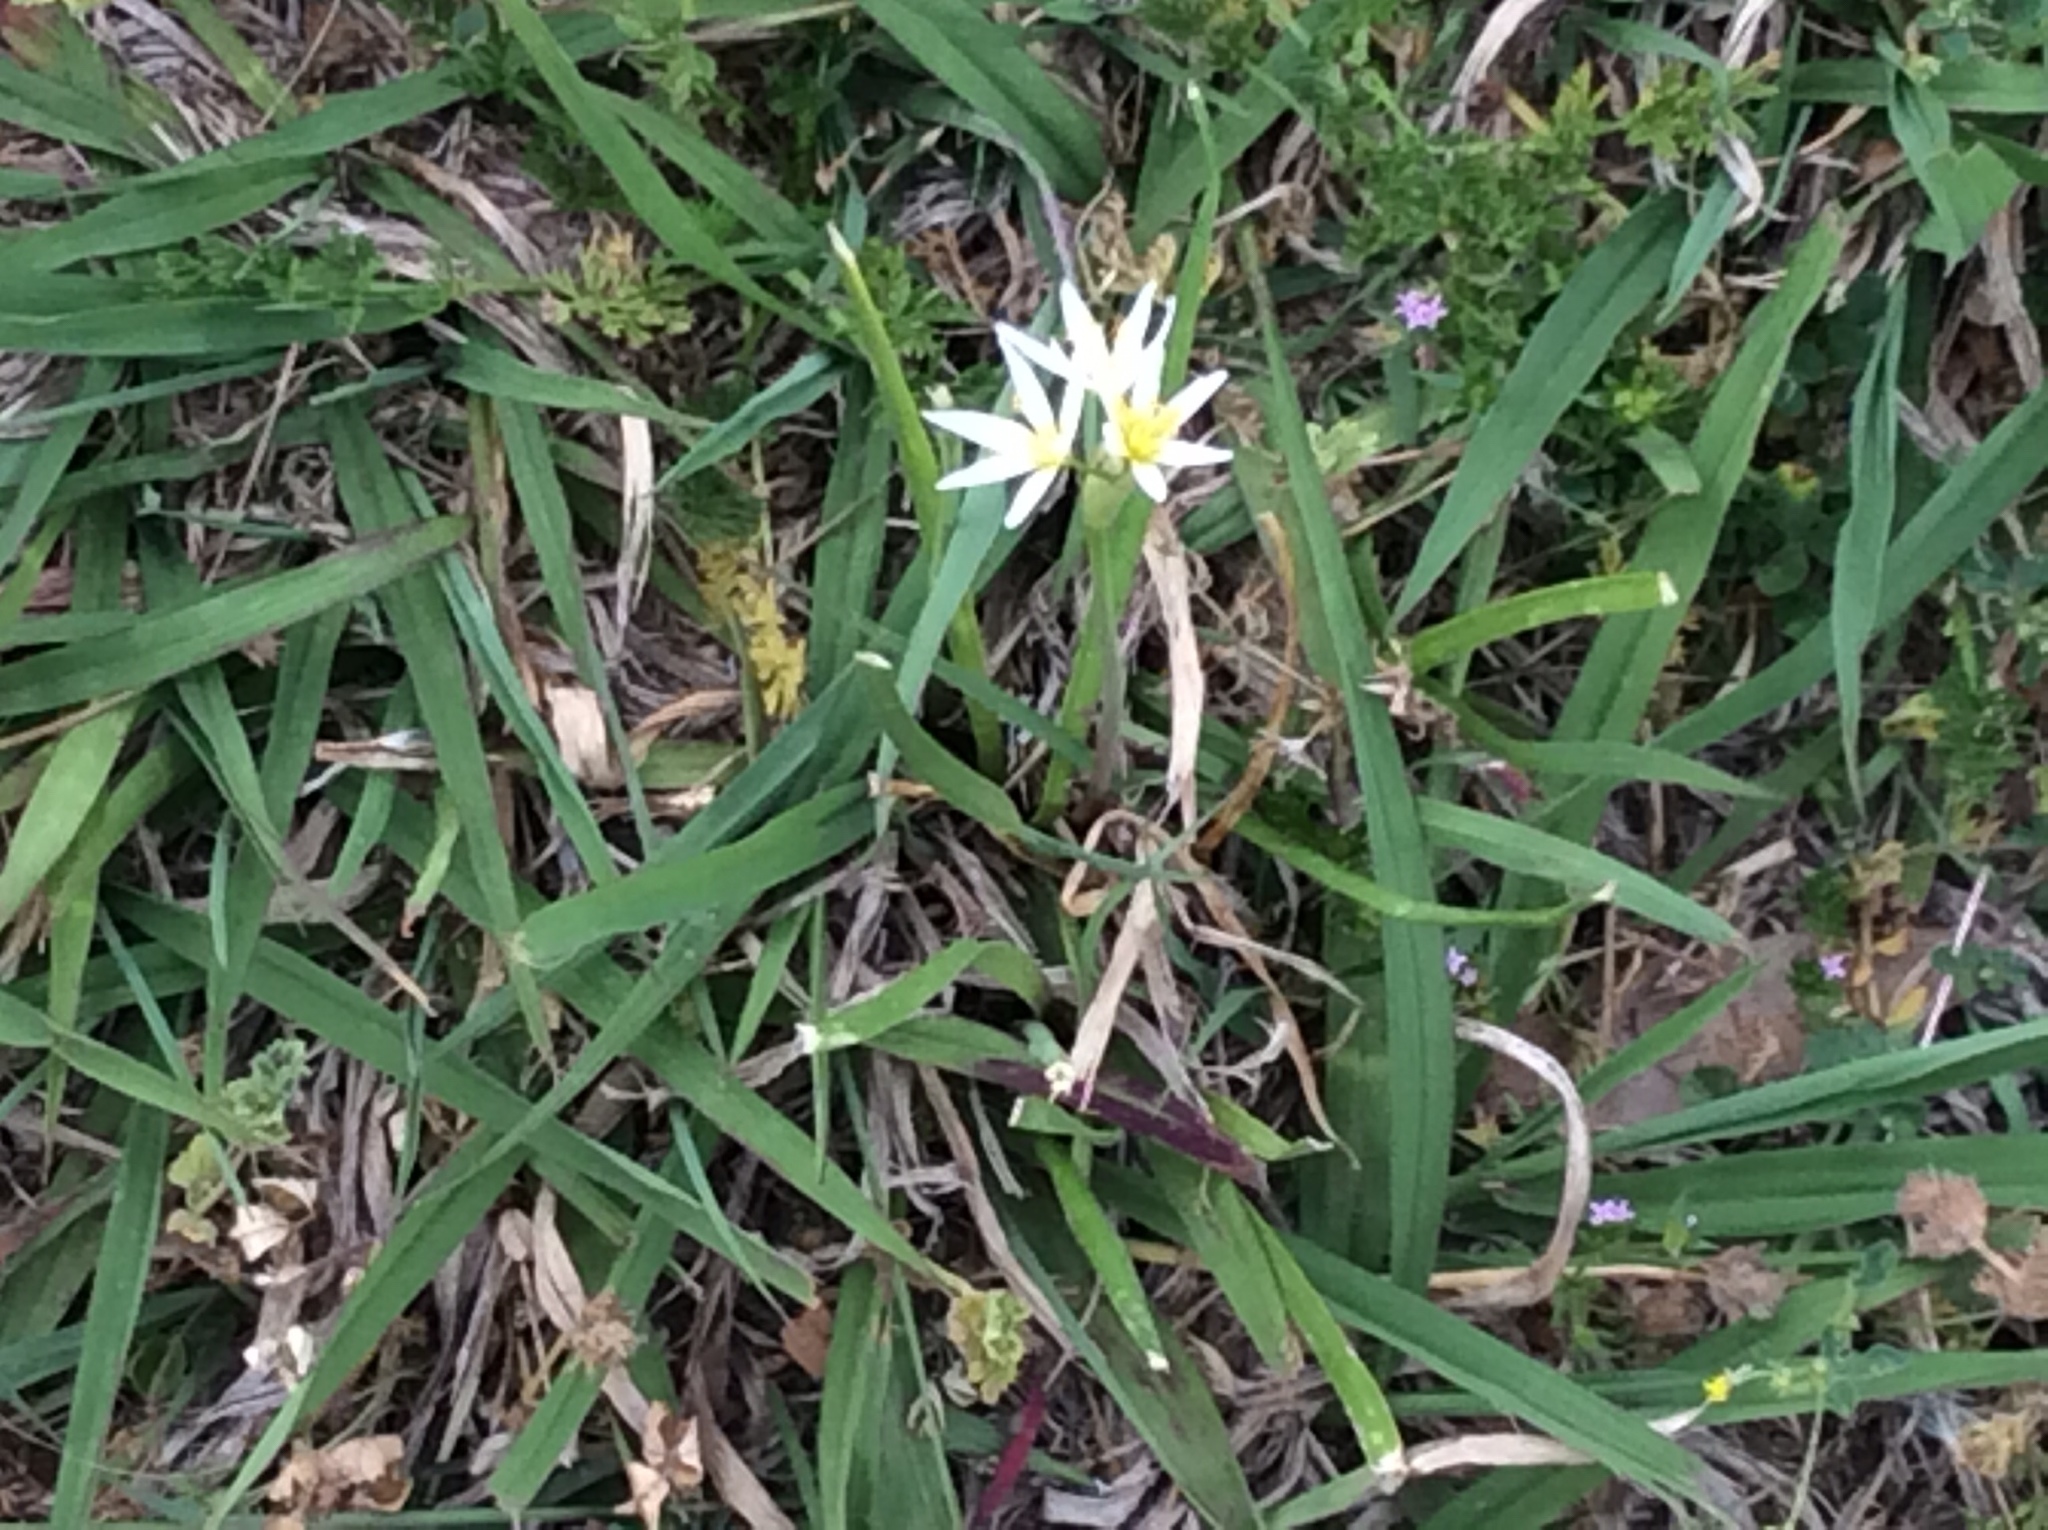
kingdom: Plantae
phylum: Tracheophyta
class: Liliopsida
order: Asparagales
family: Amaryllidaceae
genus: Nothoscordum
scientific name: Nothoscordum bivalve
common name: Crow-poison
